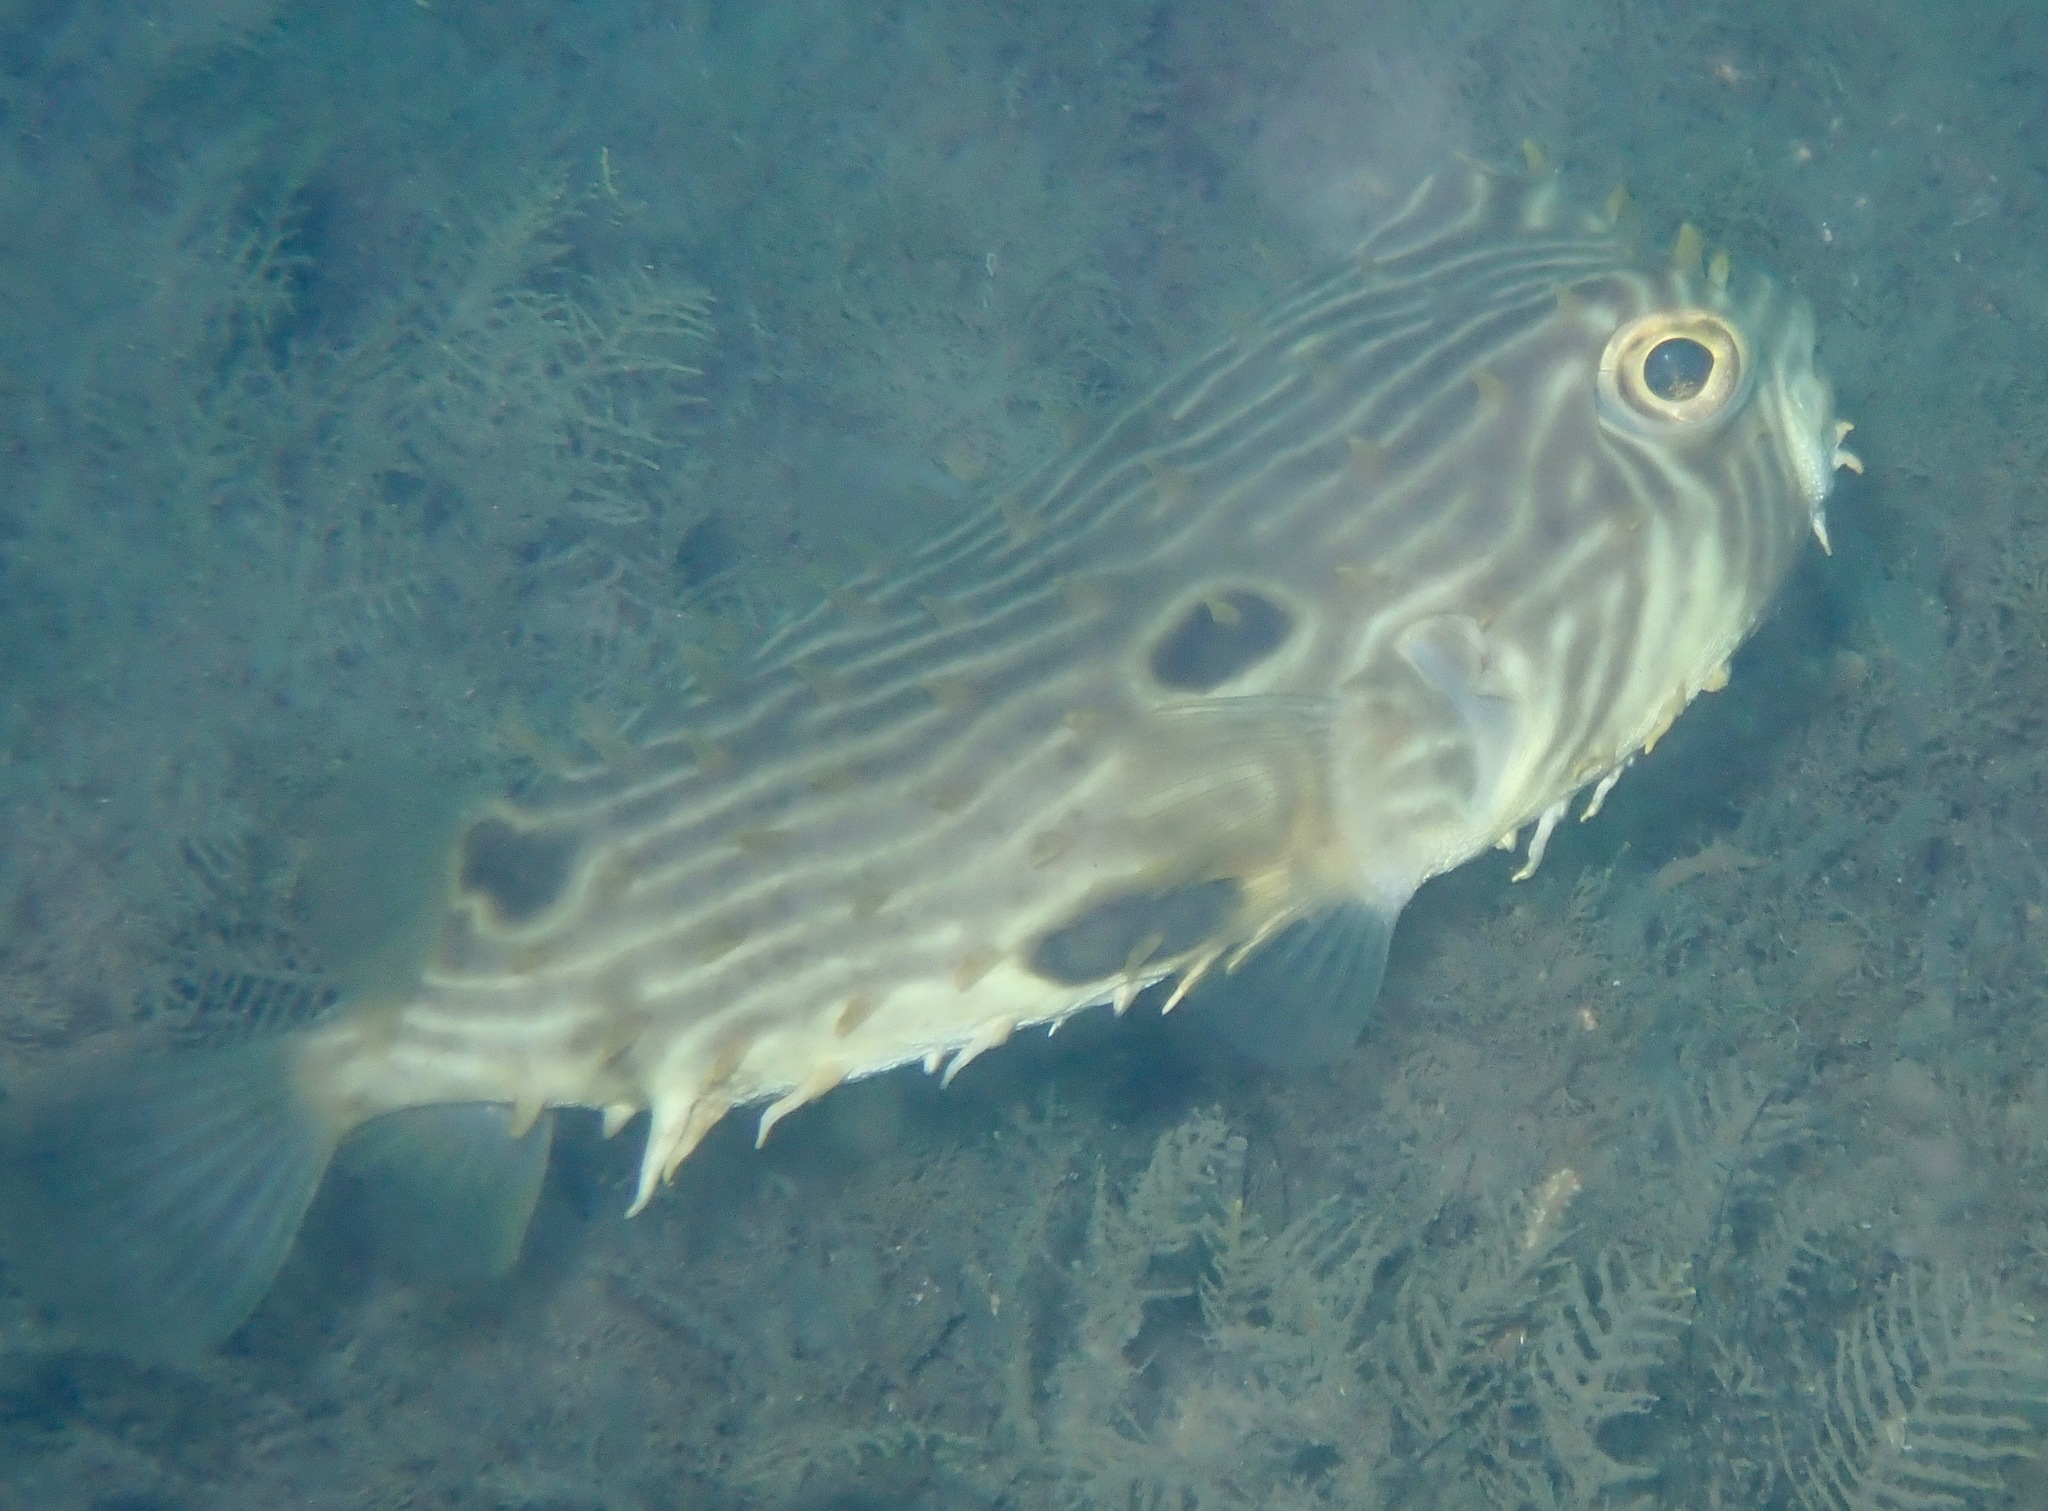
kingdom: Animalia
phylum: Chordata
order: Tetraodontiformes
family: Diodontidae
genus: Chilomycterus
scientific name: Chilomycterus schoepfii
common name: Striped burrfish
